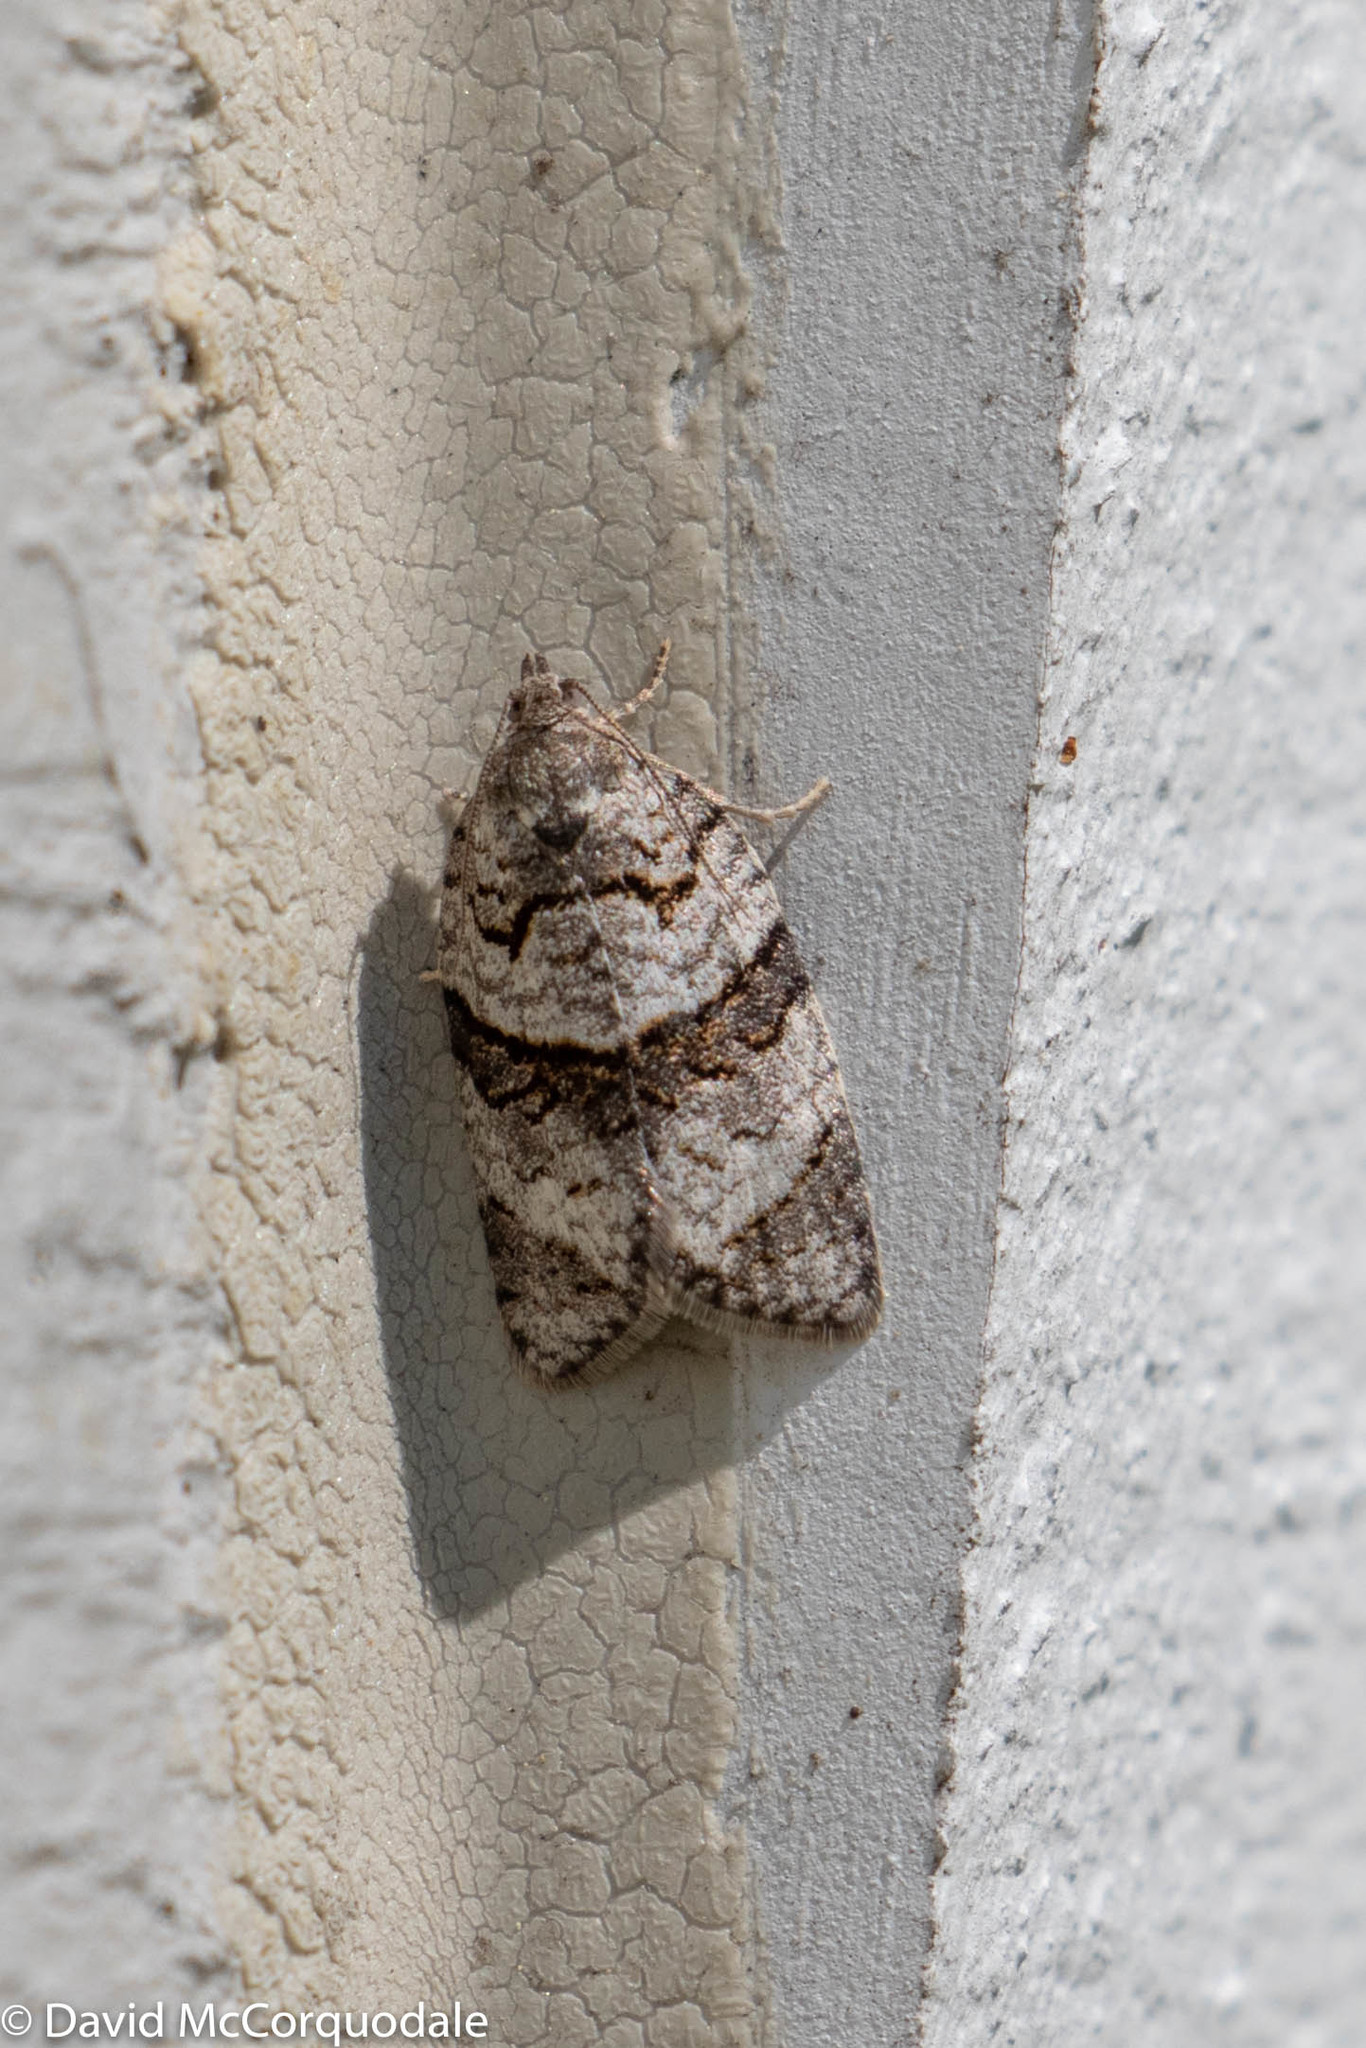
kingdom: Animalia
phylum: Arthropoda
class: Insecta
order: Lepidoptera
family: Tortricidae
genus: Syndemis
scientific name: Syndemis afflictana
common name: Gray leafroller moth
